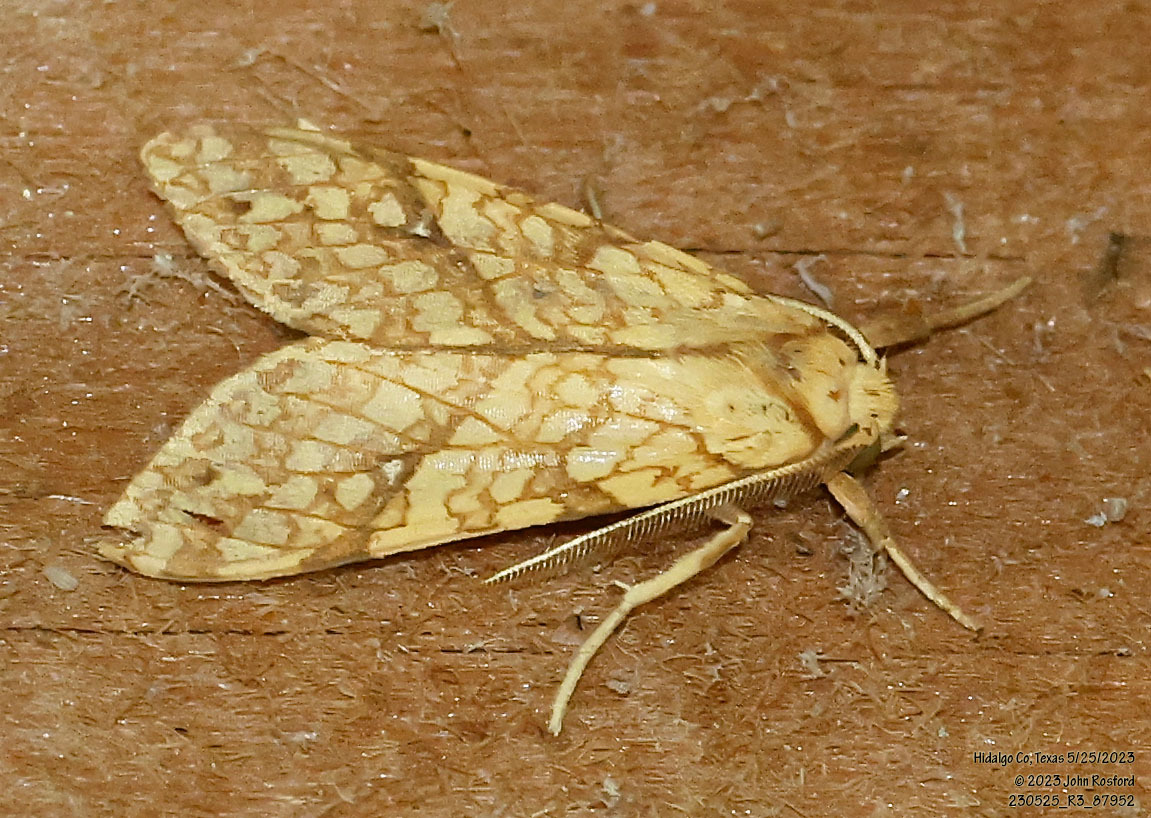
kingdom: Animalia
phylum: Arthropoda
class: Insecta
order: Lepidoptera
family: Erebidae
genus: Lophocampa
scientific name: Lophocampa annulosa
